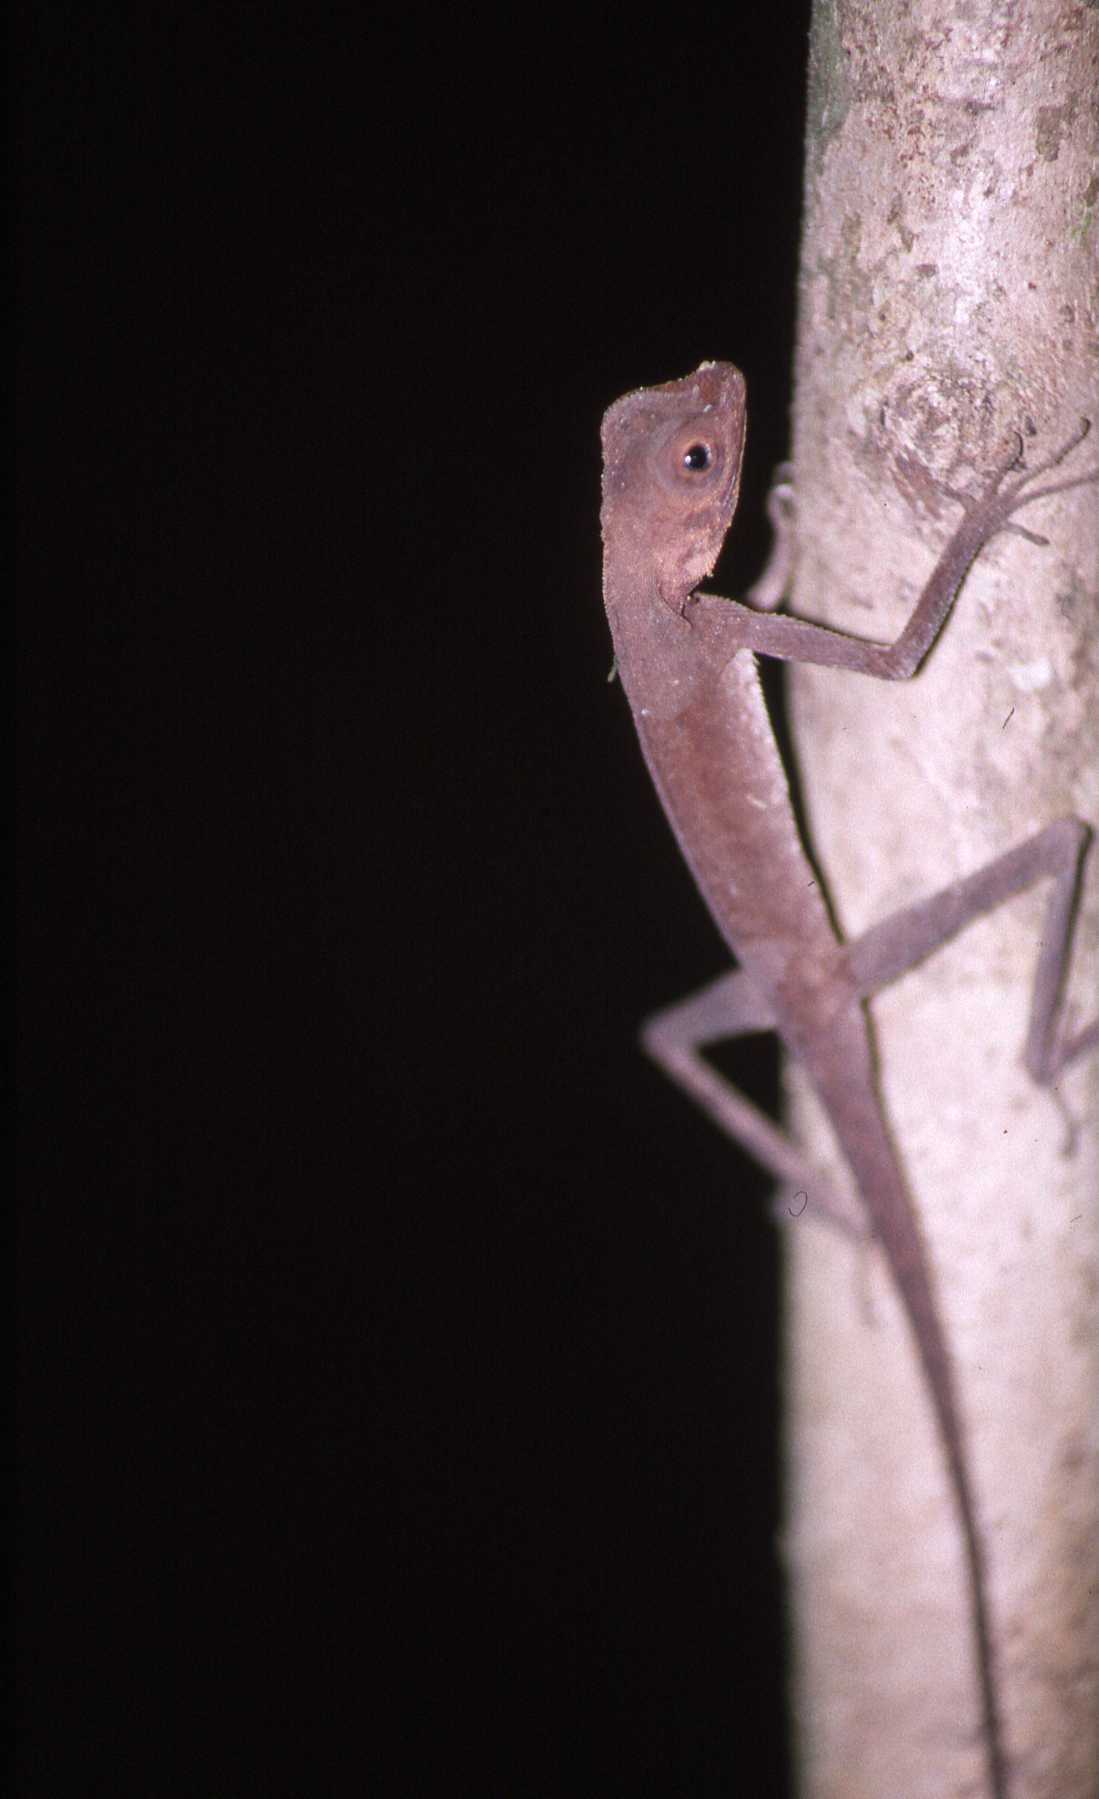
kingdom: Animalia
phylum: Chordata
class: Squamata
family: Agamidae
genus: Aphaniotis
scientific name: Aphaniotis fusca
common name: Dusky earless agama
